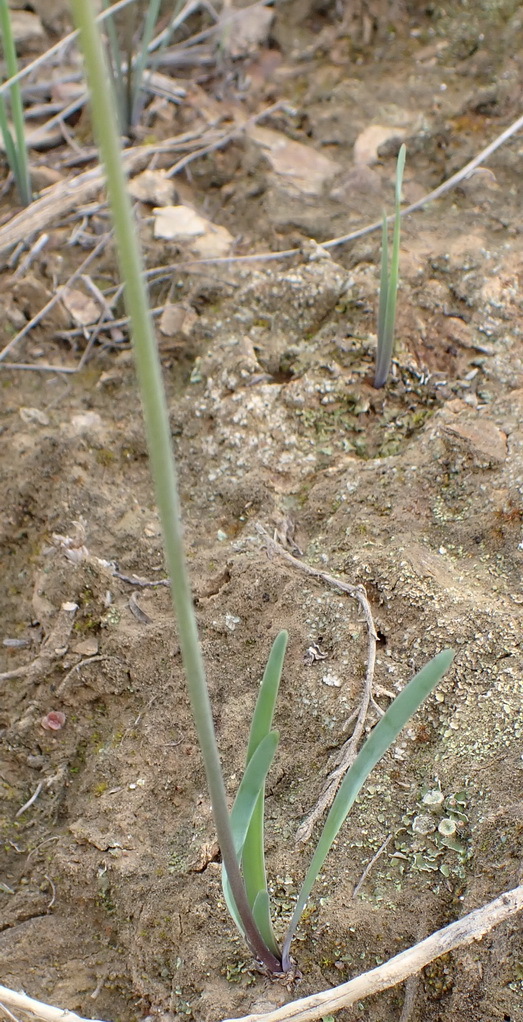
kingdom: Plantae
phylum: Tracheophyta
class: Liliopsida
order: Asparagales
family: Amaryllidaceae
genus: Tulbaghia
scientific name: Tulbaghia violacea
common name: Society garlic
